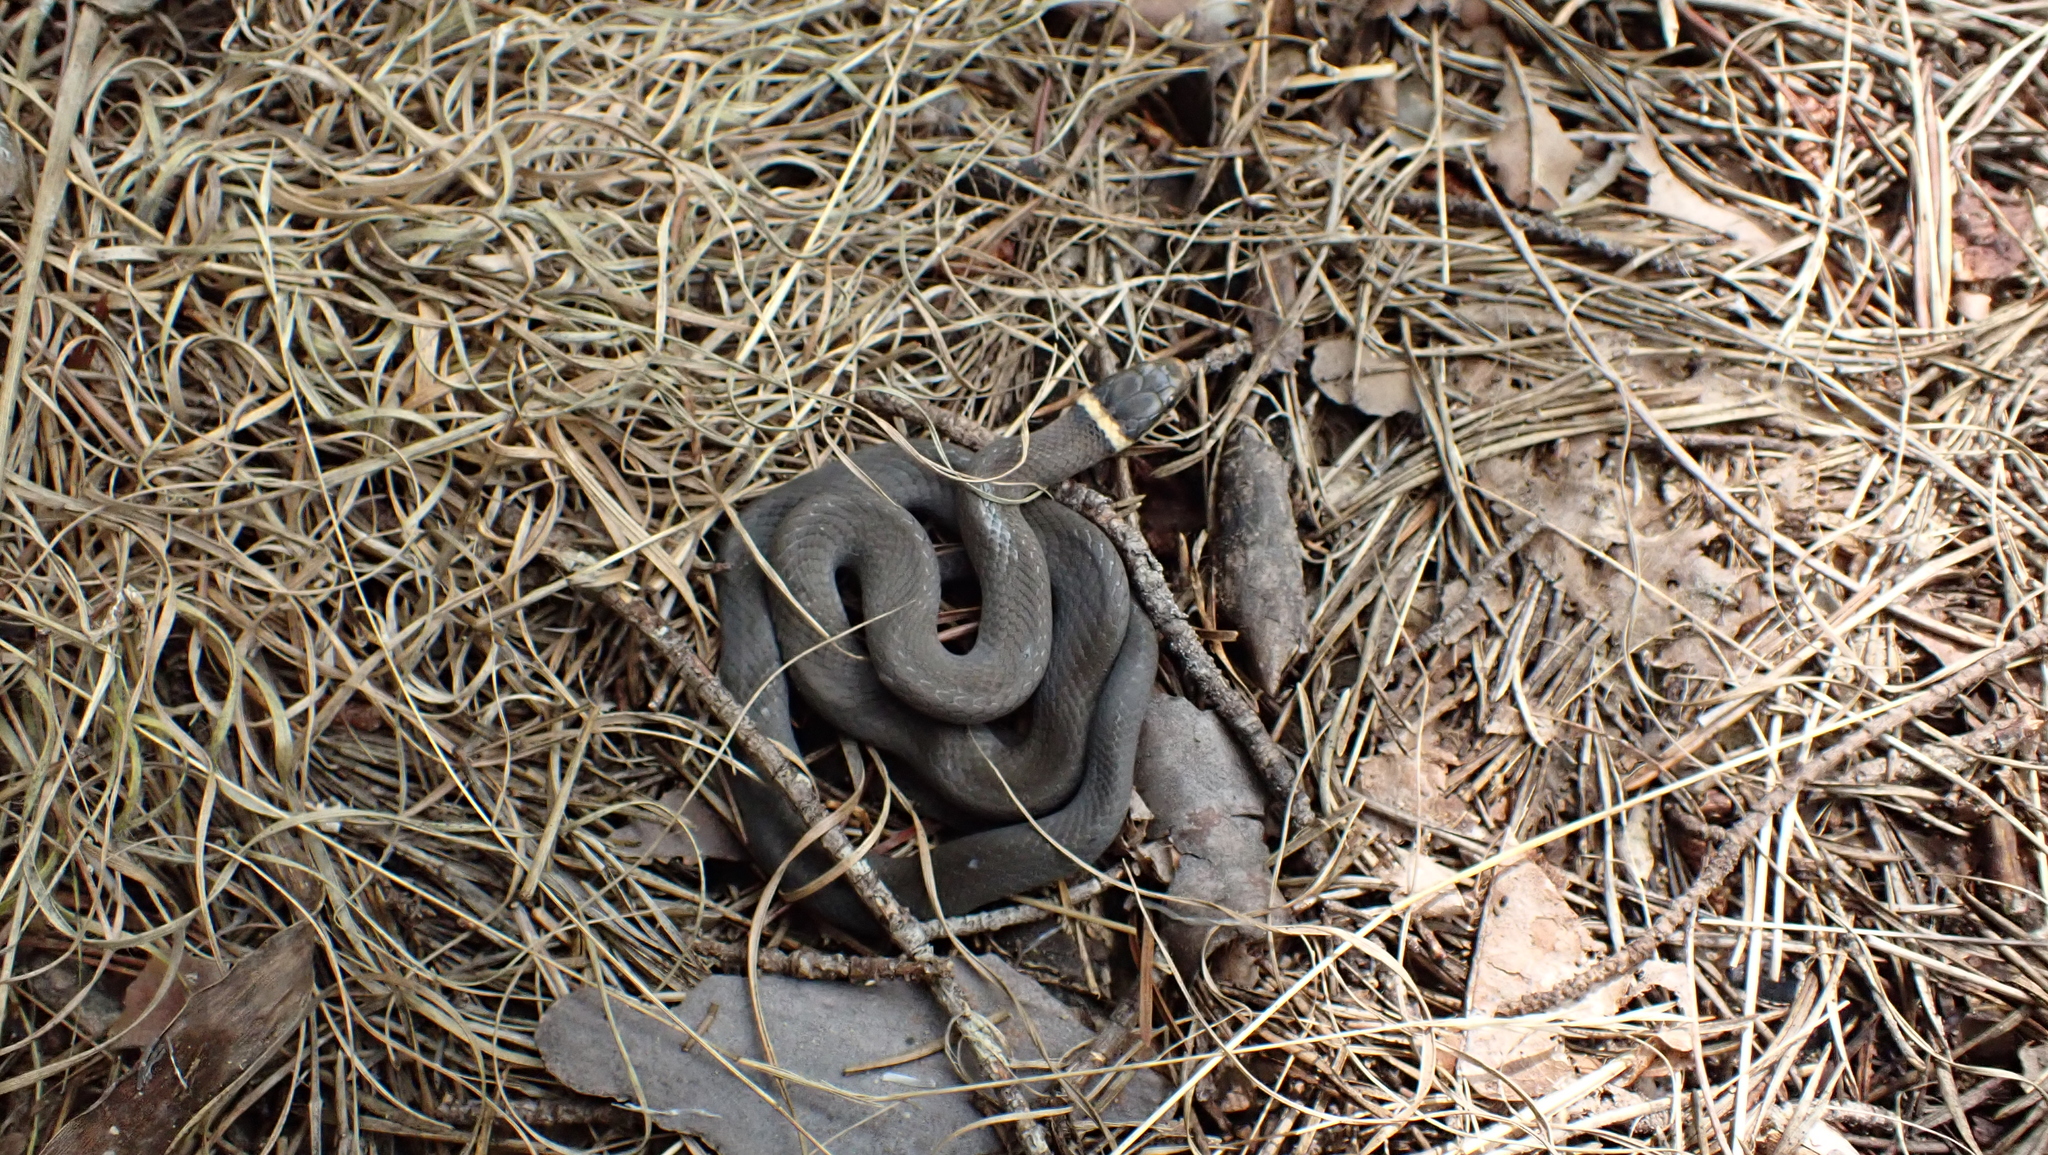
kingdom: Animalia
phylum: Chordata
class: Squamata
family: Colubridae
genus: Diadophis
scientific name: Diadophis punctatus
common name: Ringneck snake
